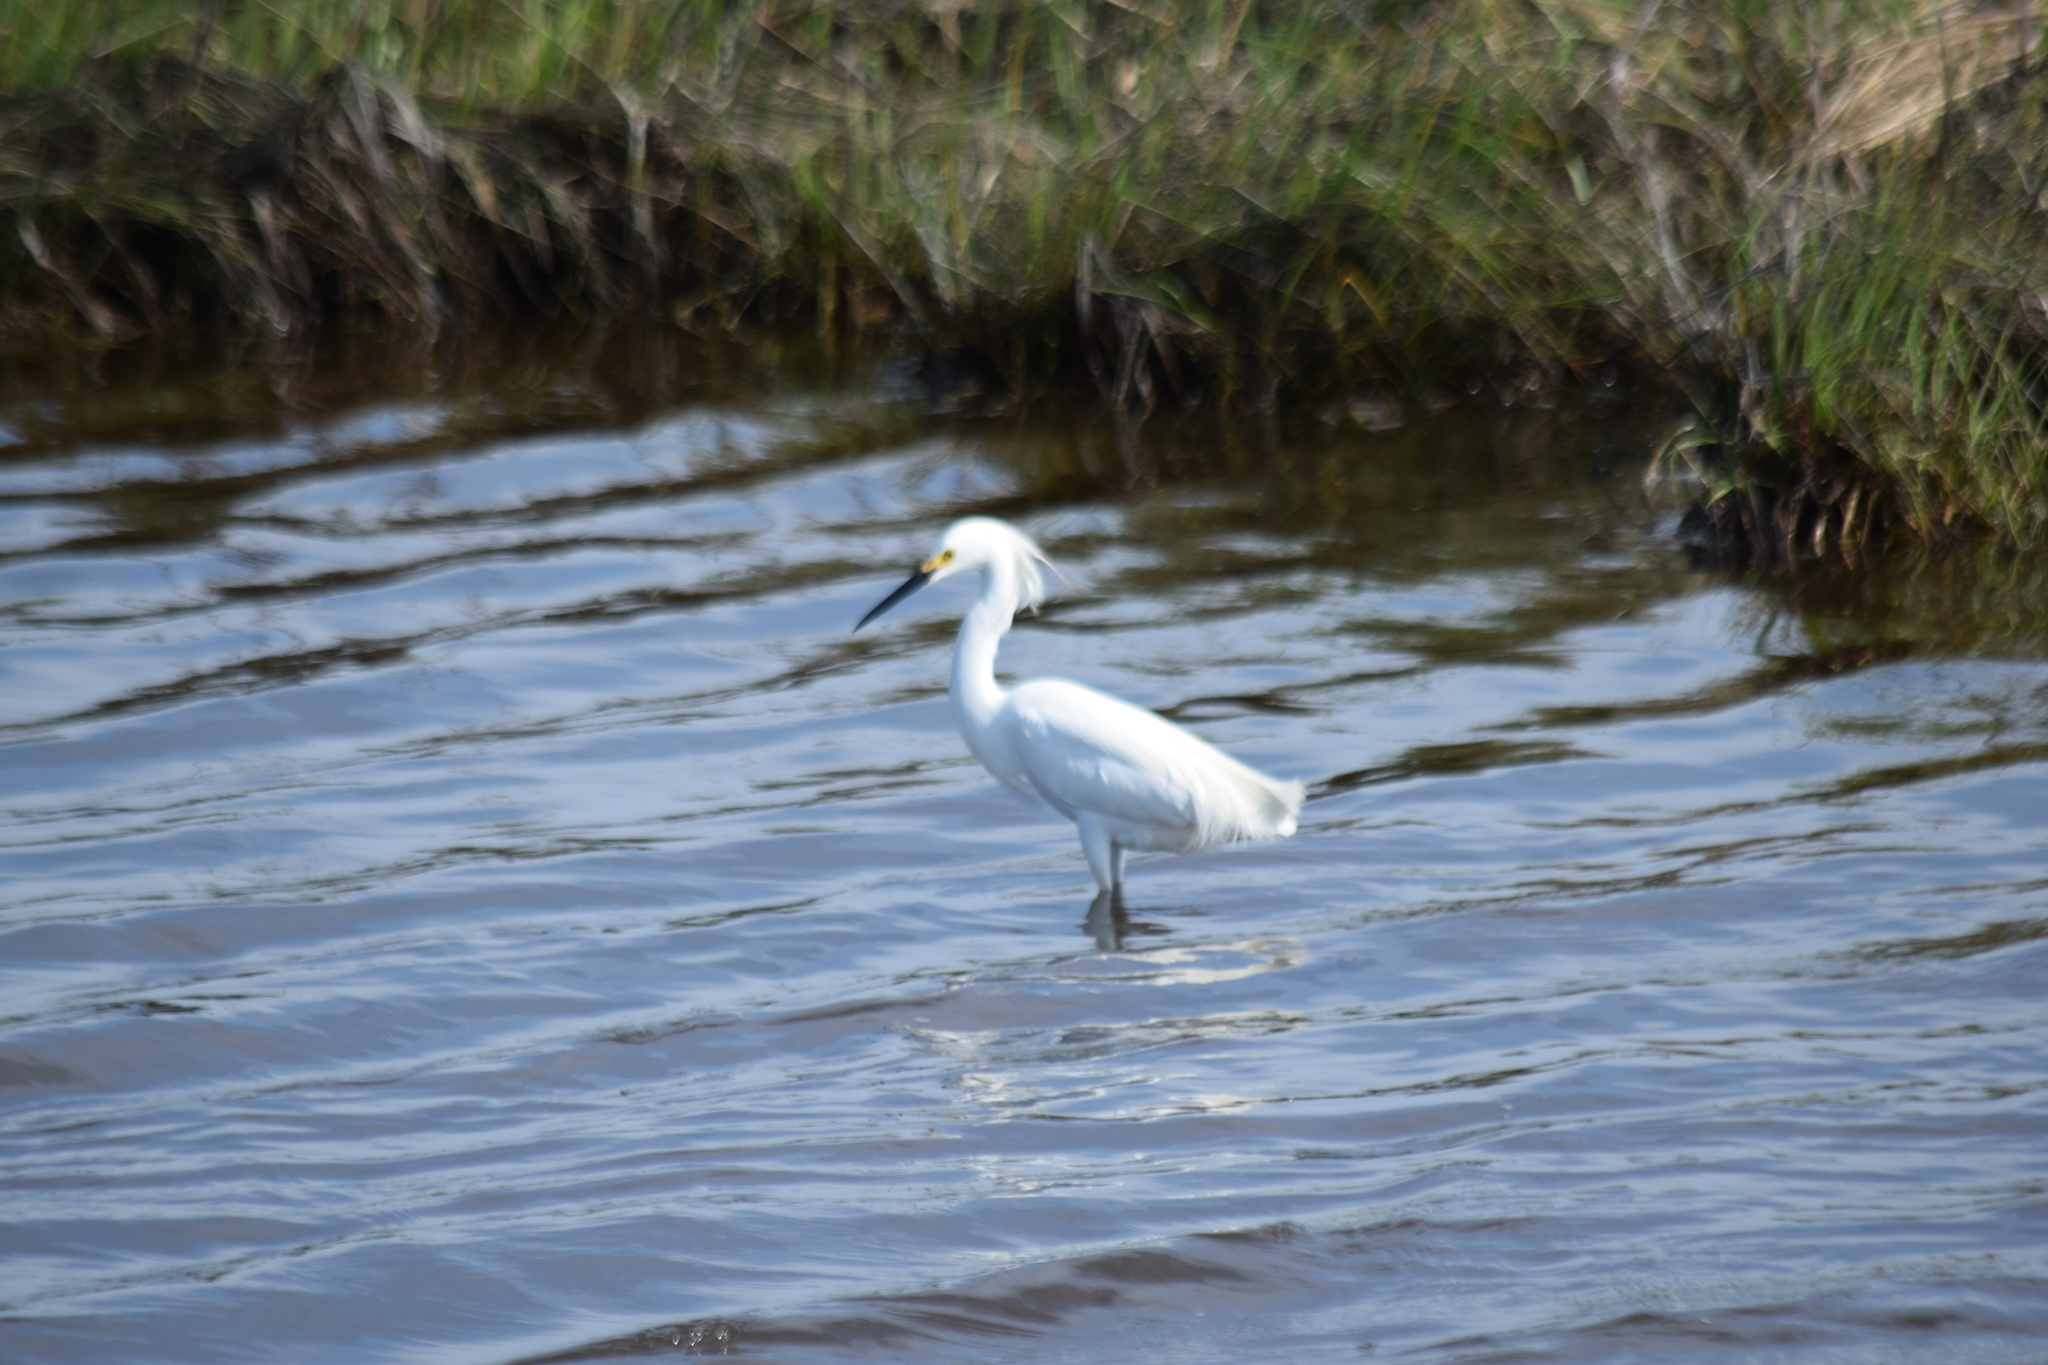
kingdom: Animalia
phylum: Chordata
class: Aves
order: Pelecaniformes
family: Ardeidae
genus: Egretta
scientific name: Egretta thula
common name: Snowy egret
